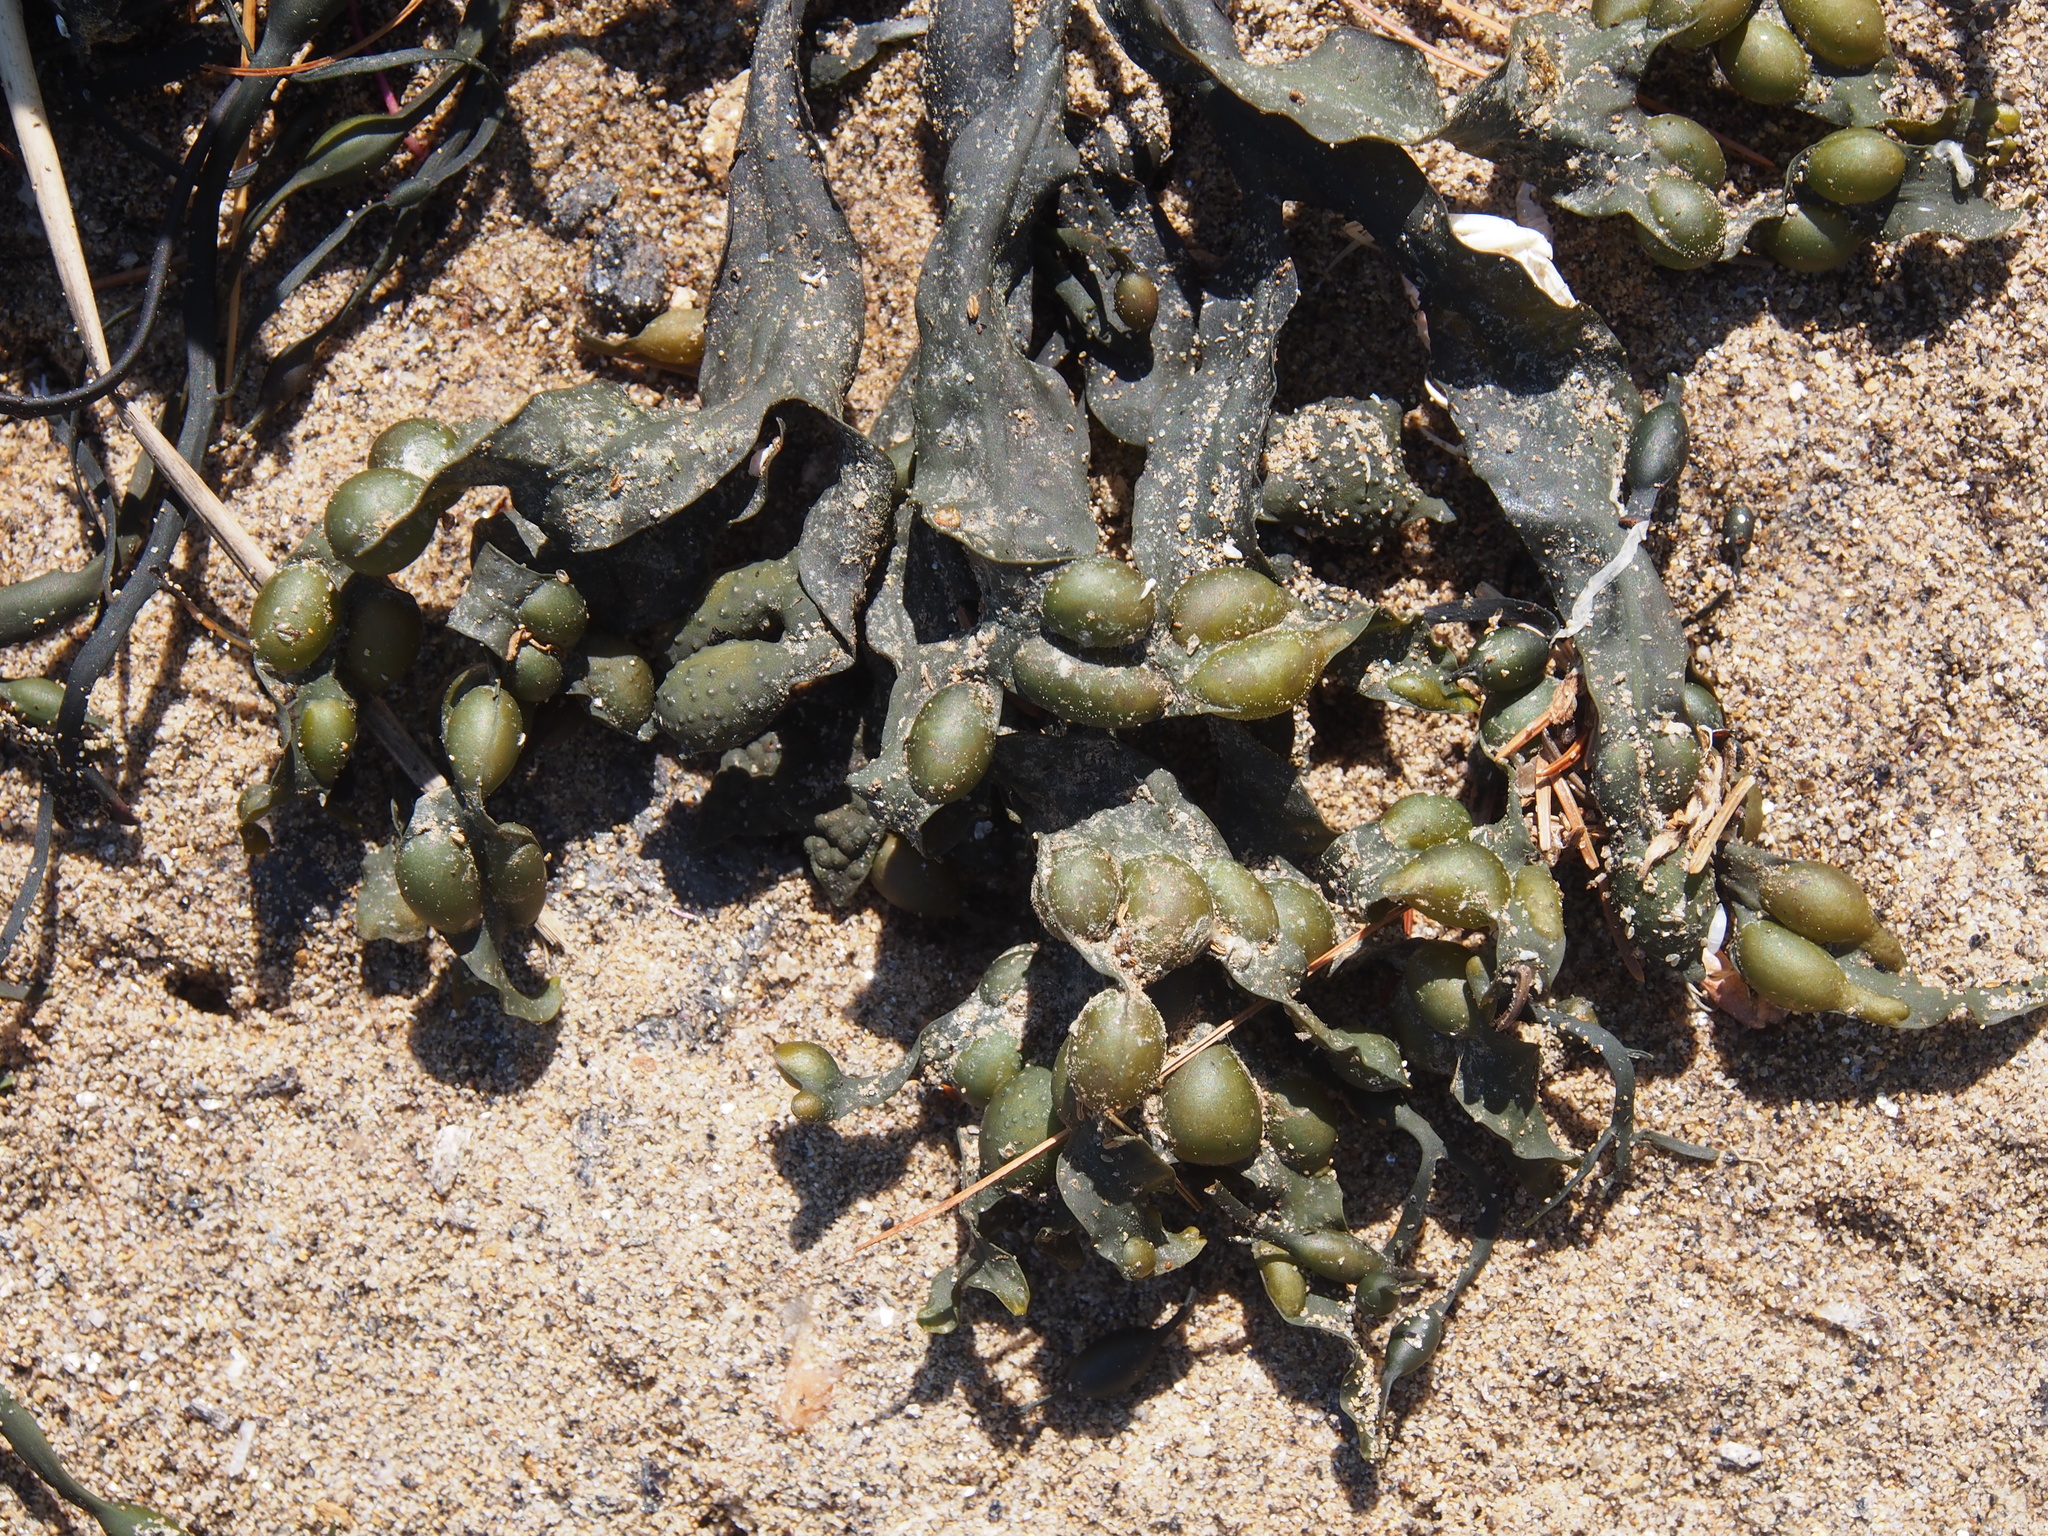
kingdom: Chromista
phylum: Ochrophyta
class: Phaeophyceae
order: Fucales
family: Fucaceae
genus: Fucus
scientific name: Fucus vesiculosus
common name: Bladder wrack
